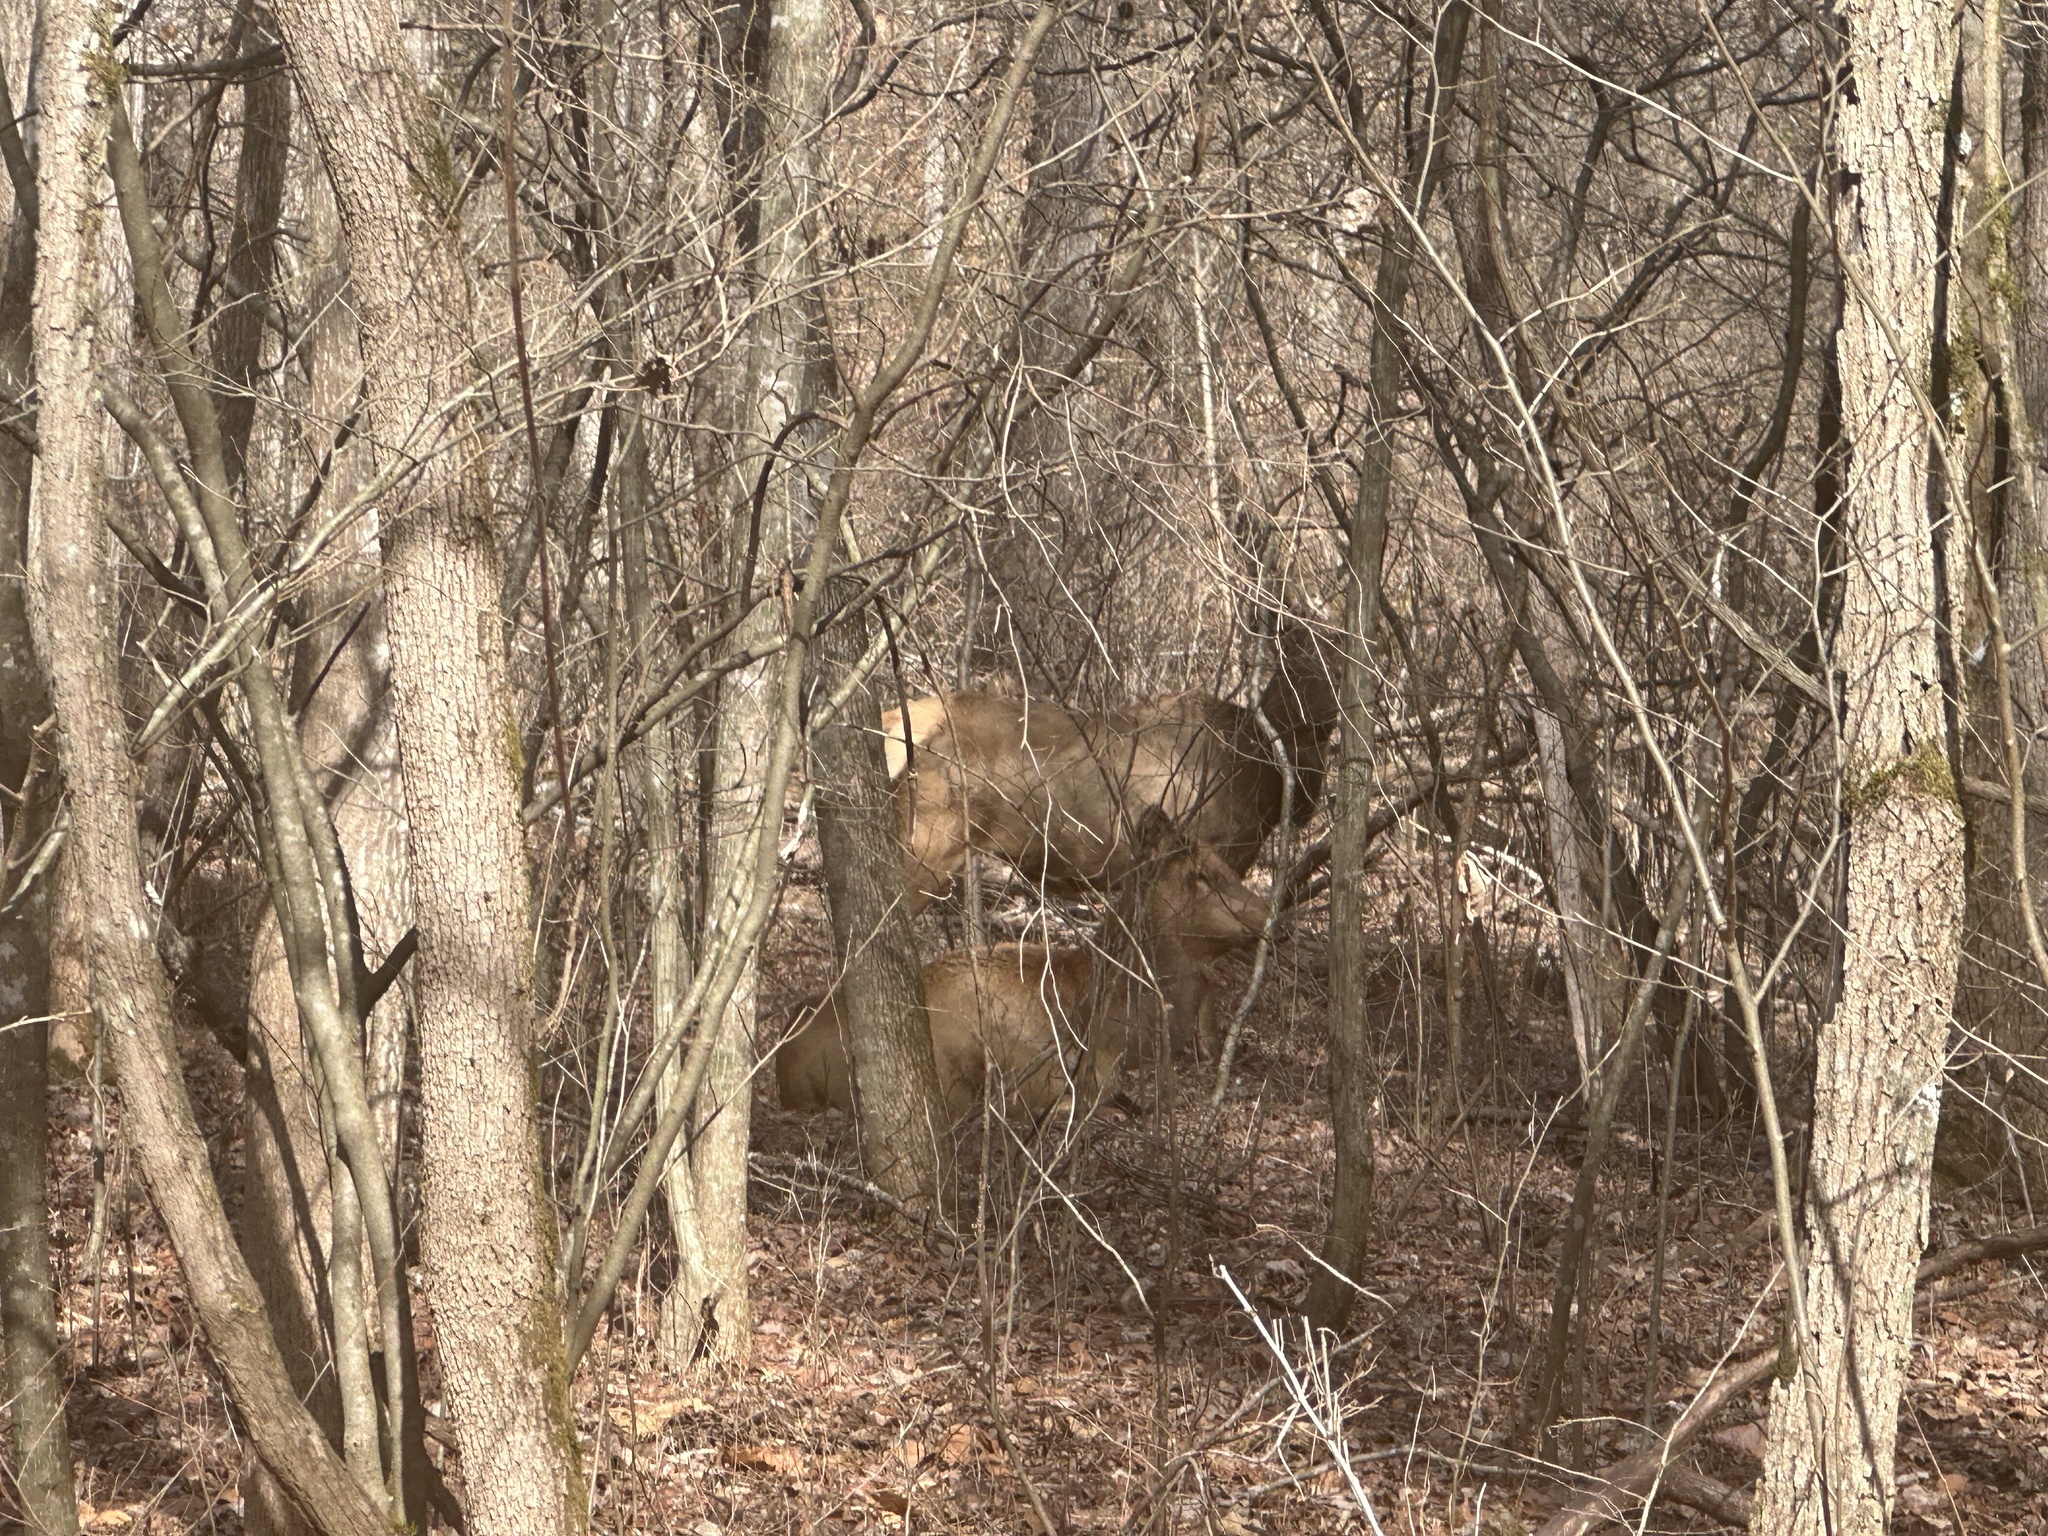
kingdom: Animalia
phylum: Chordata
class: Mammalia
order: Artiodactyla
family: Cervidae
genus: Cervus
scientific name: Cervus elaphus
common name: Red deer
